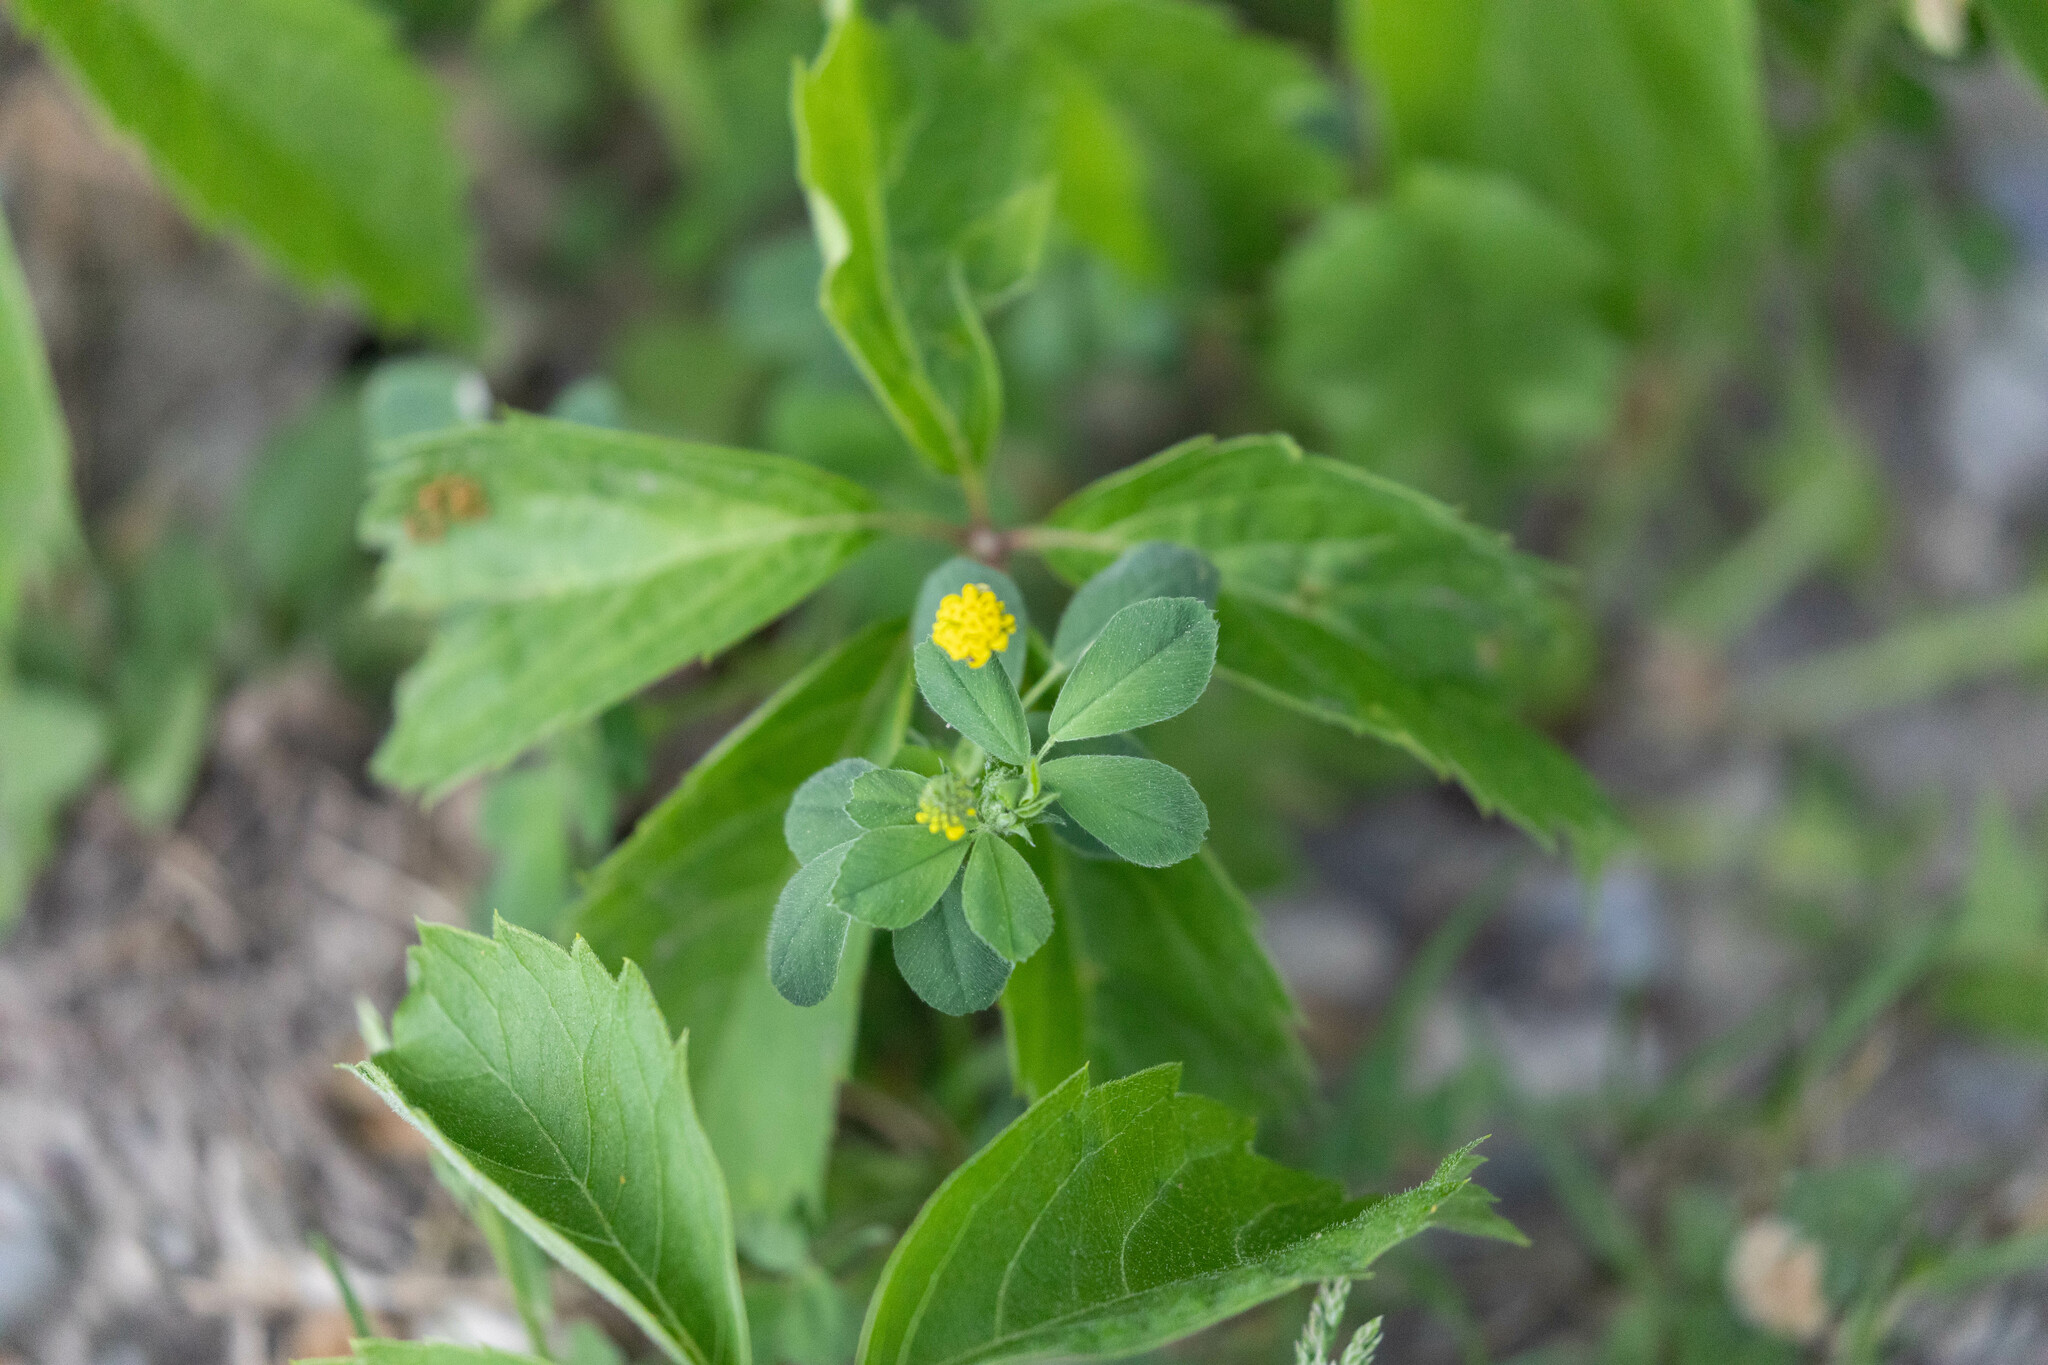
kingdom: Plantae
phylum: Tracheophyta
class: Magnoliopsida
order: Fabales
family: Fabaceae
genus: Medicago
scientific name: Medicago lupulina
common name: Black medick
